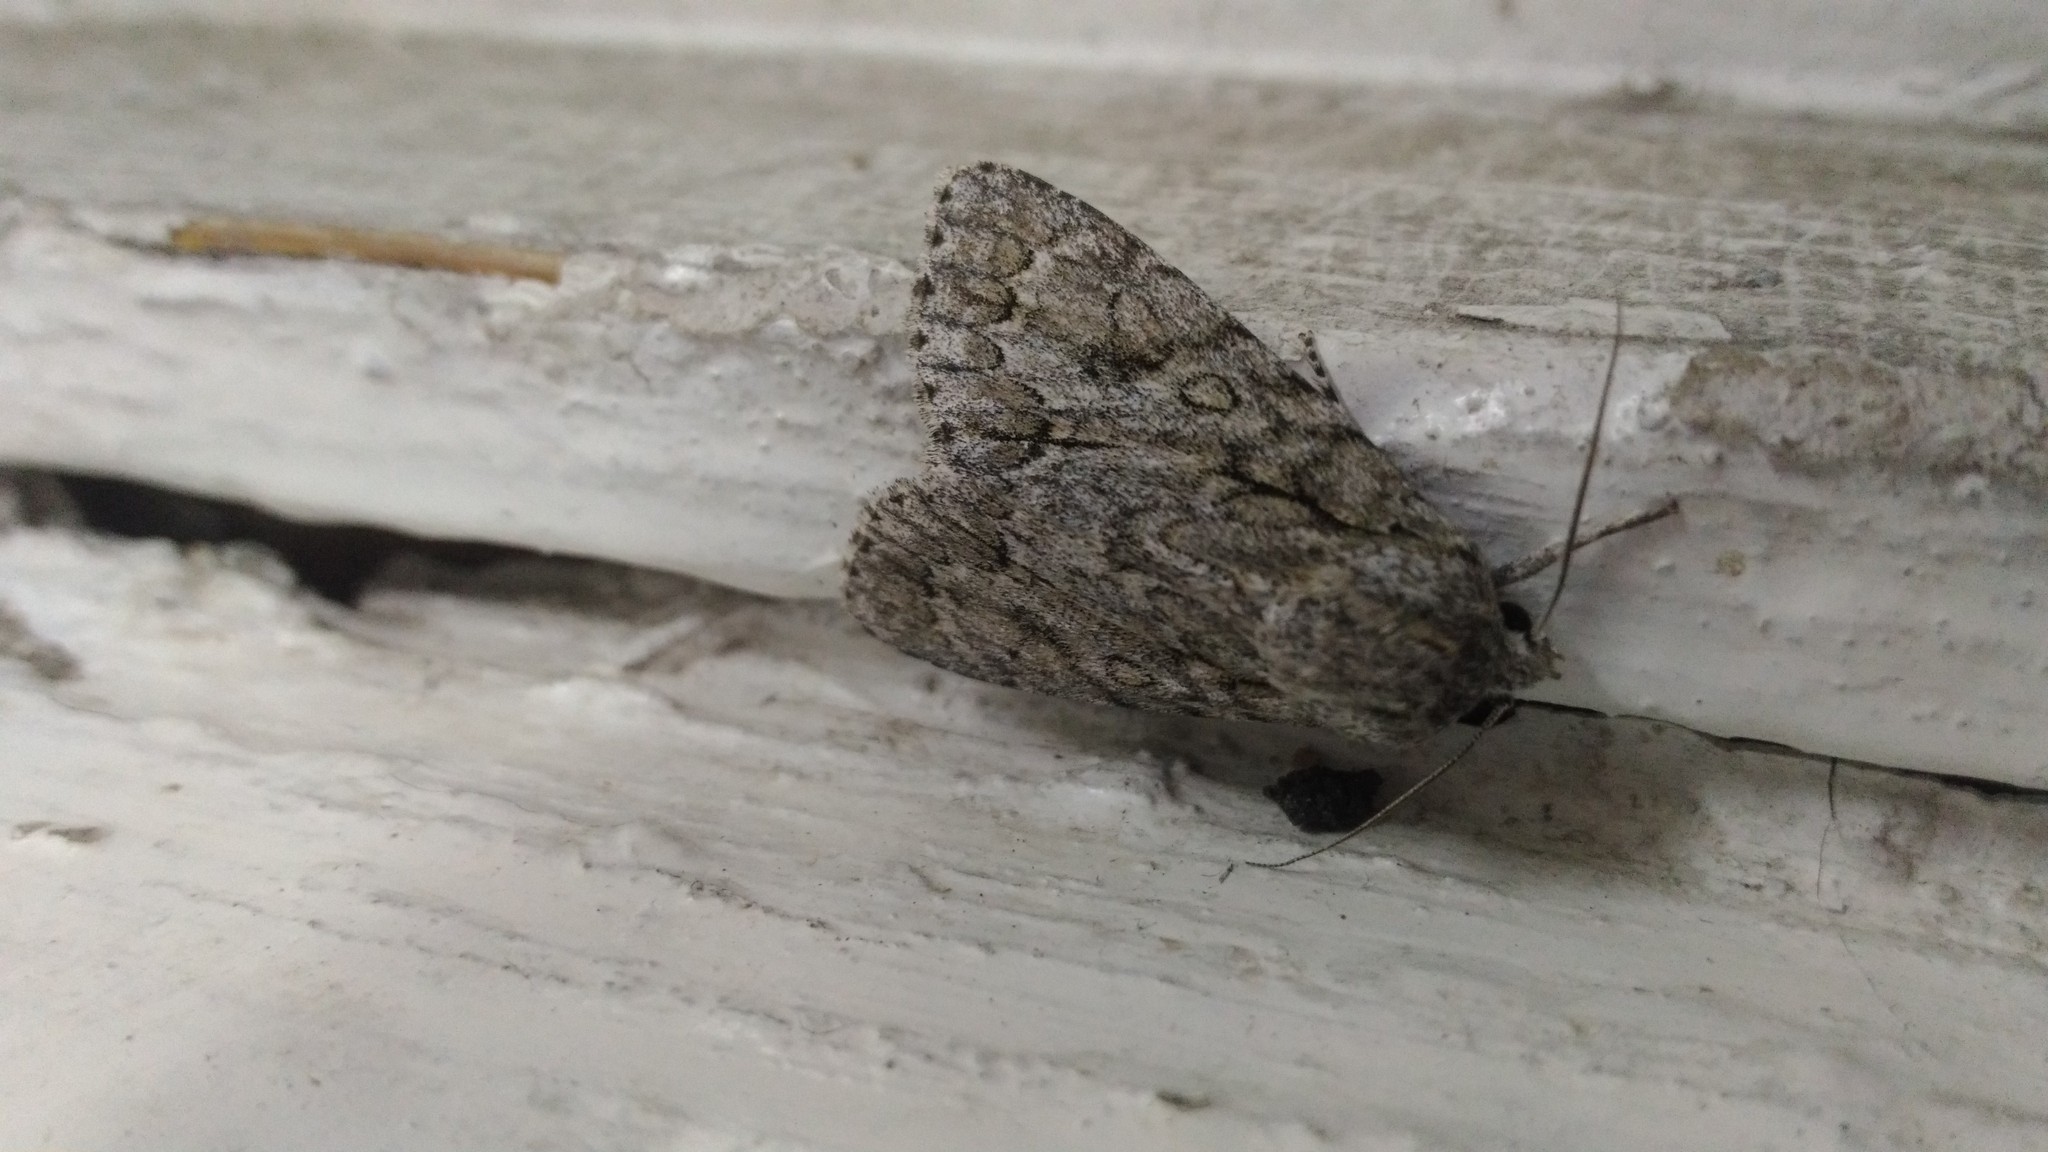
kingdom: Animalia
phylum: Arthropoda
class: Insecta
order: Lepidoptera
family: Noctuidae
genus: Acronicta
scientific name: Acronicta aceris
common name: Sycamore
